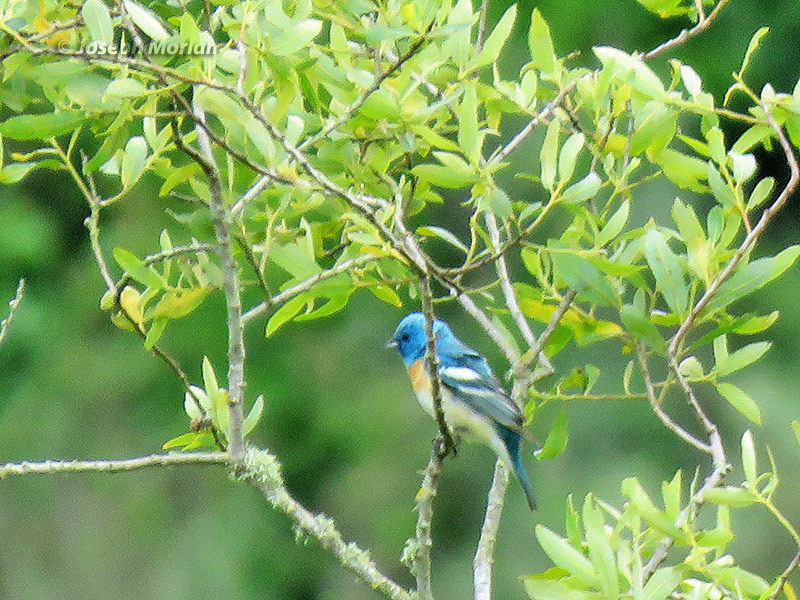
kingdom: Animalia
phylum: Chordata
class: Aves
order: Passeriformes
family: Cardinalidae
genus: Passerina
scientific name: Passerina amoena
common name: Lazuli bunting
